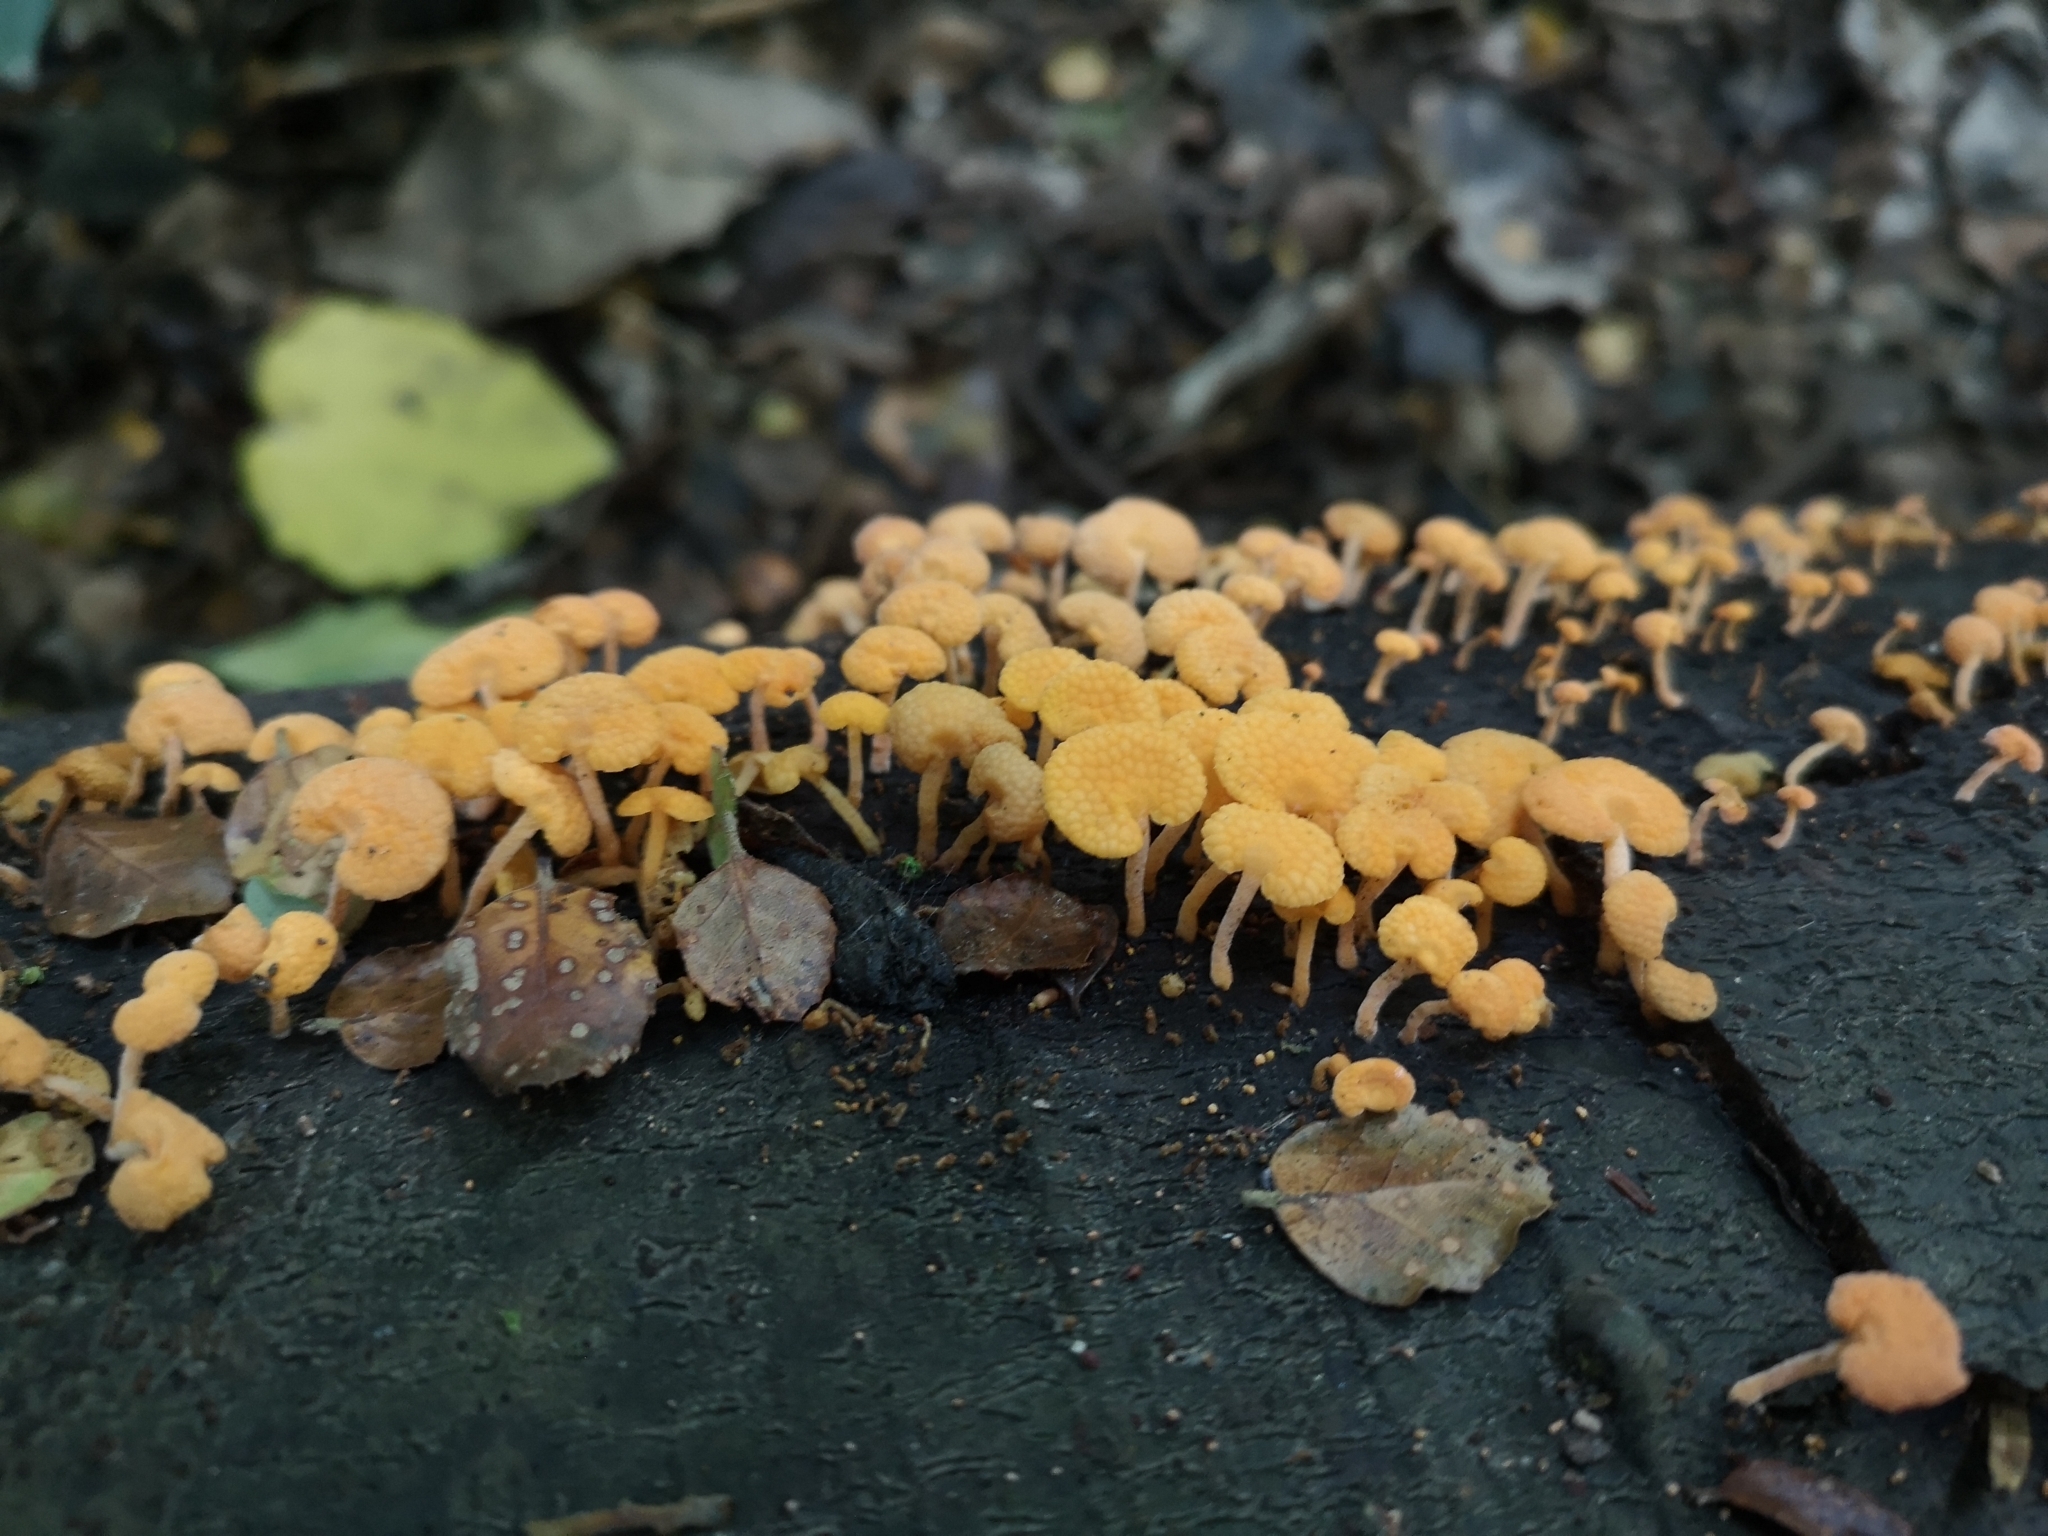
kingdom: Fungi
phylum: Basidiomycota
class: Agaricomycetes
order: Agaricales
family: Mycenaceae
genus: Favolaschia
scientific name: Favolaschia claudopus
